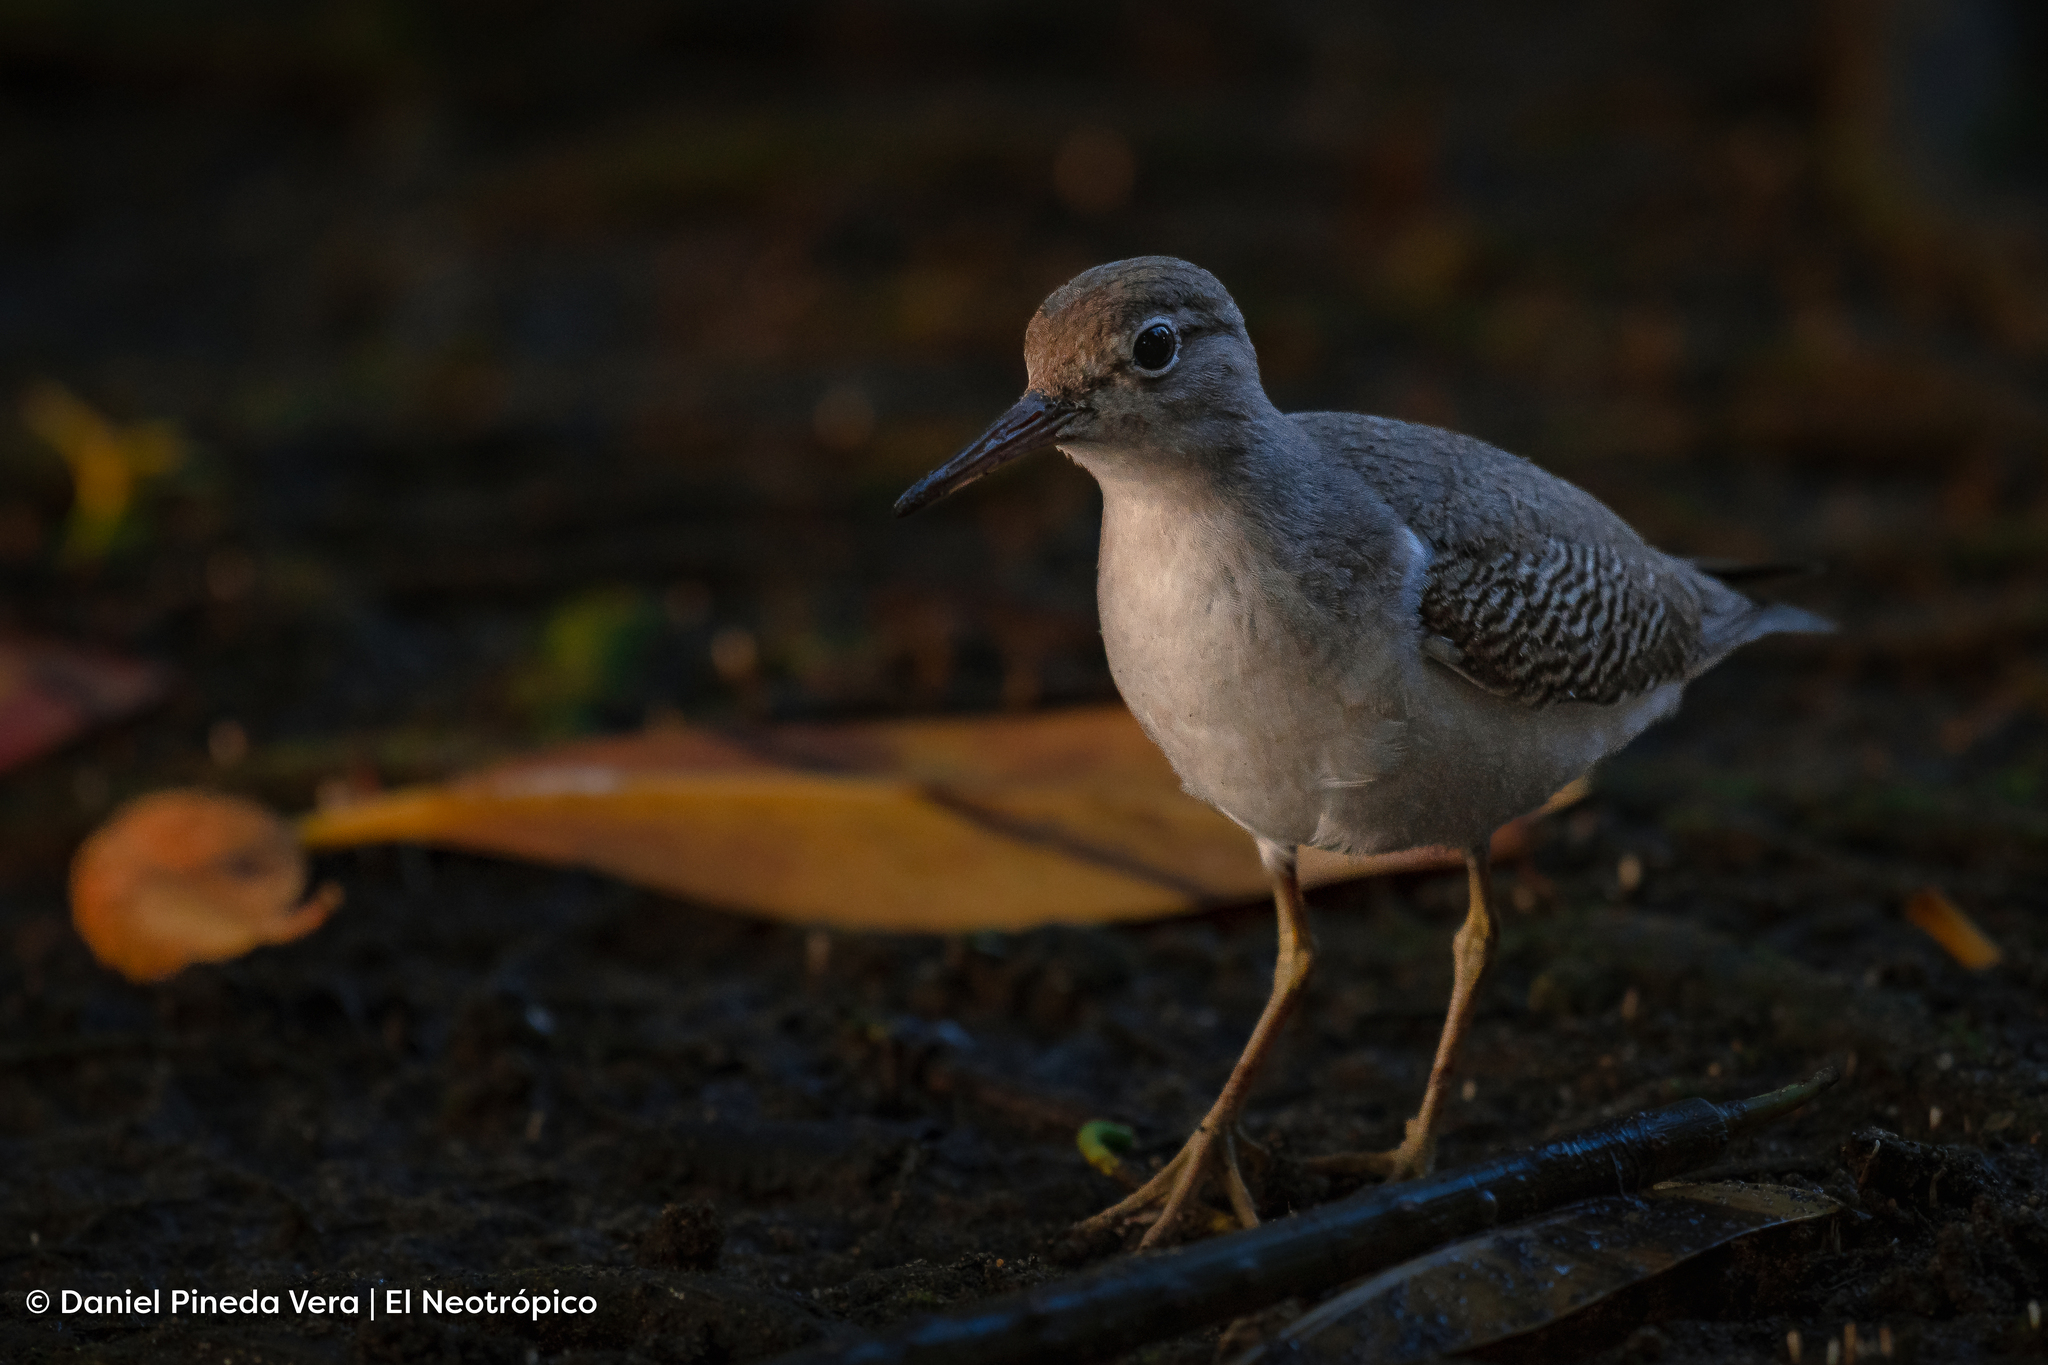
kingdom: Animalia
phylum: Chordata
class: Aves
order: Charadriiformes
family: Scolopacidae
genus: Actitis
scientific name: Actitis macularius
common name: Spotted sandpiper
